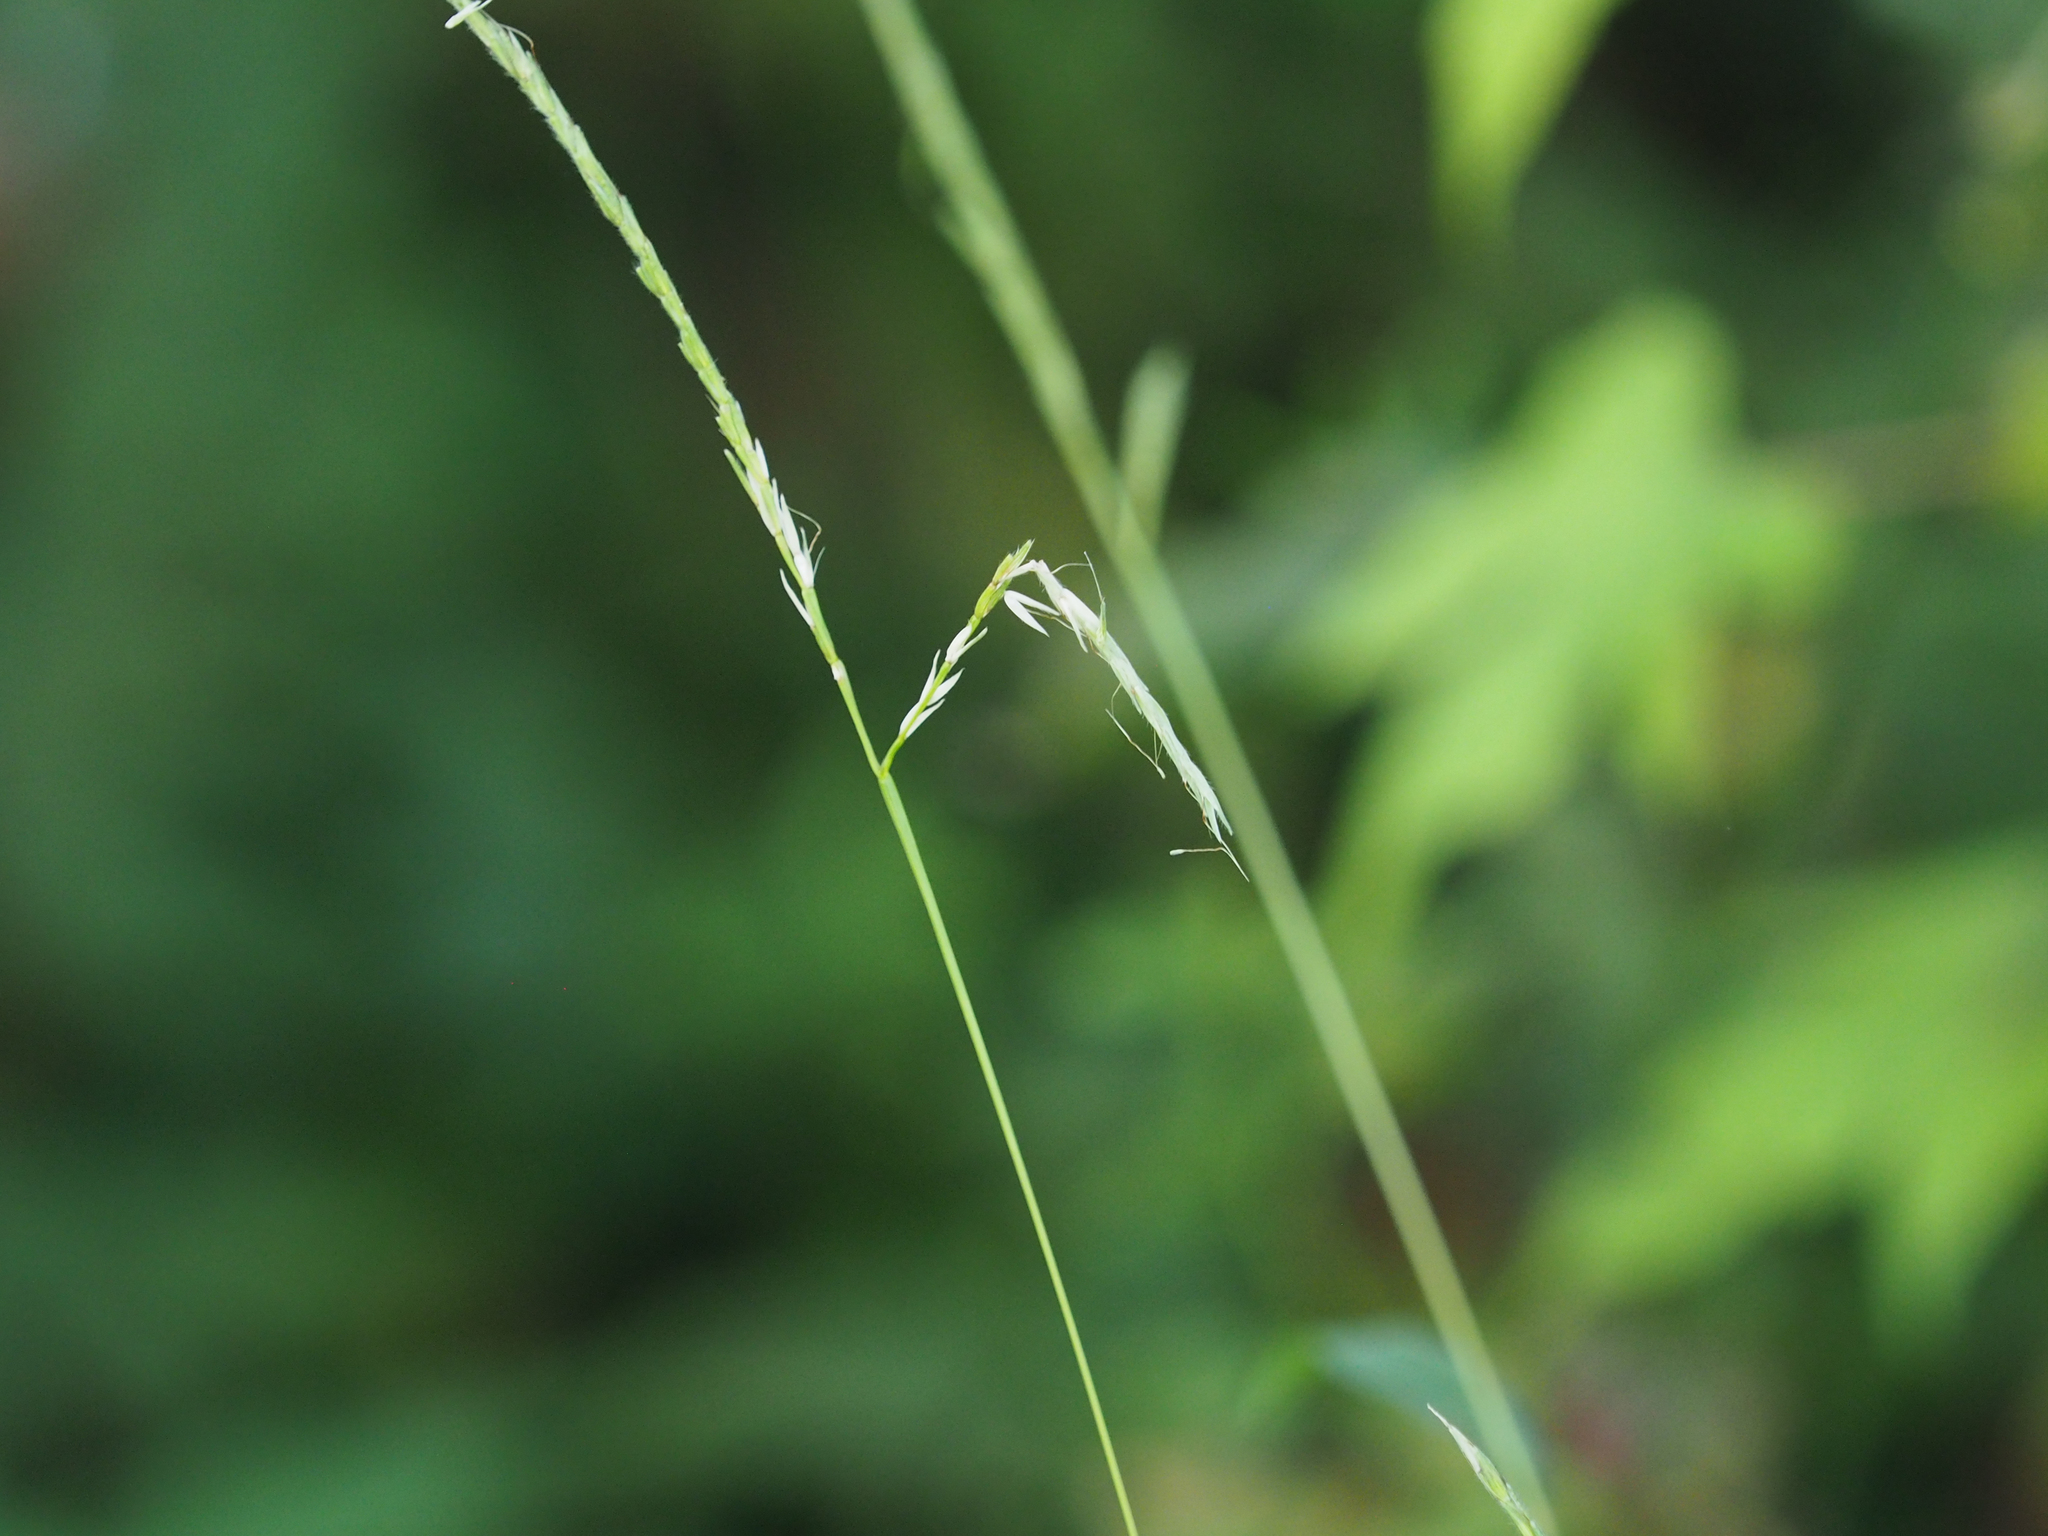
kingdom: Plantae
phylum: Tracheophyta
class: Liliopsida
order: Poales
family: Poaceae
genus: Microstegium
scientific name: Microstegium vimineum
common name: Japanese stiltgrass
